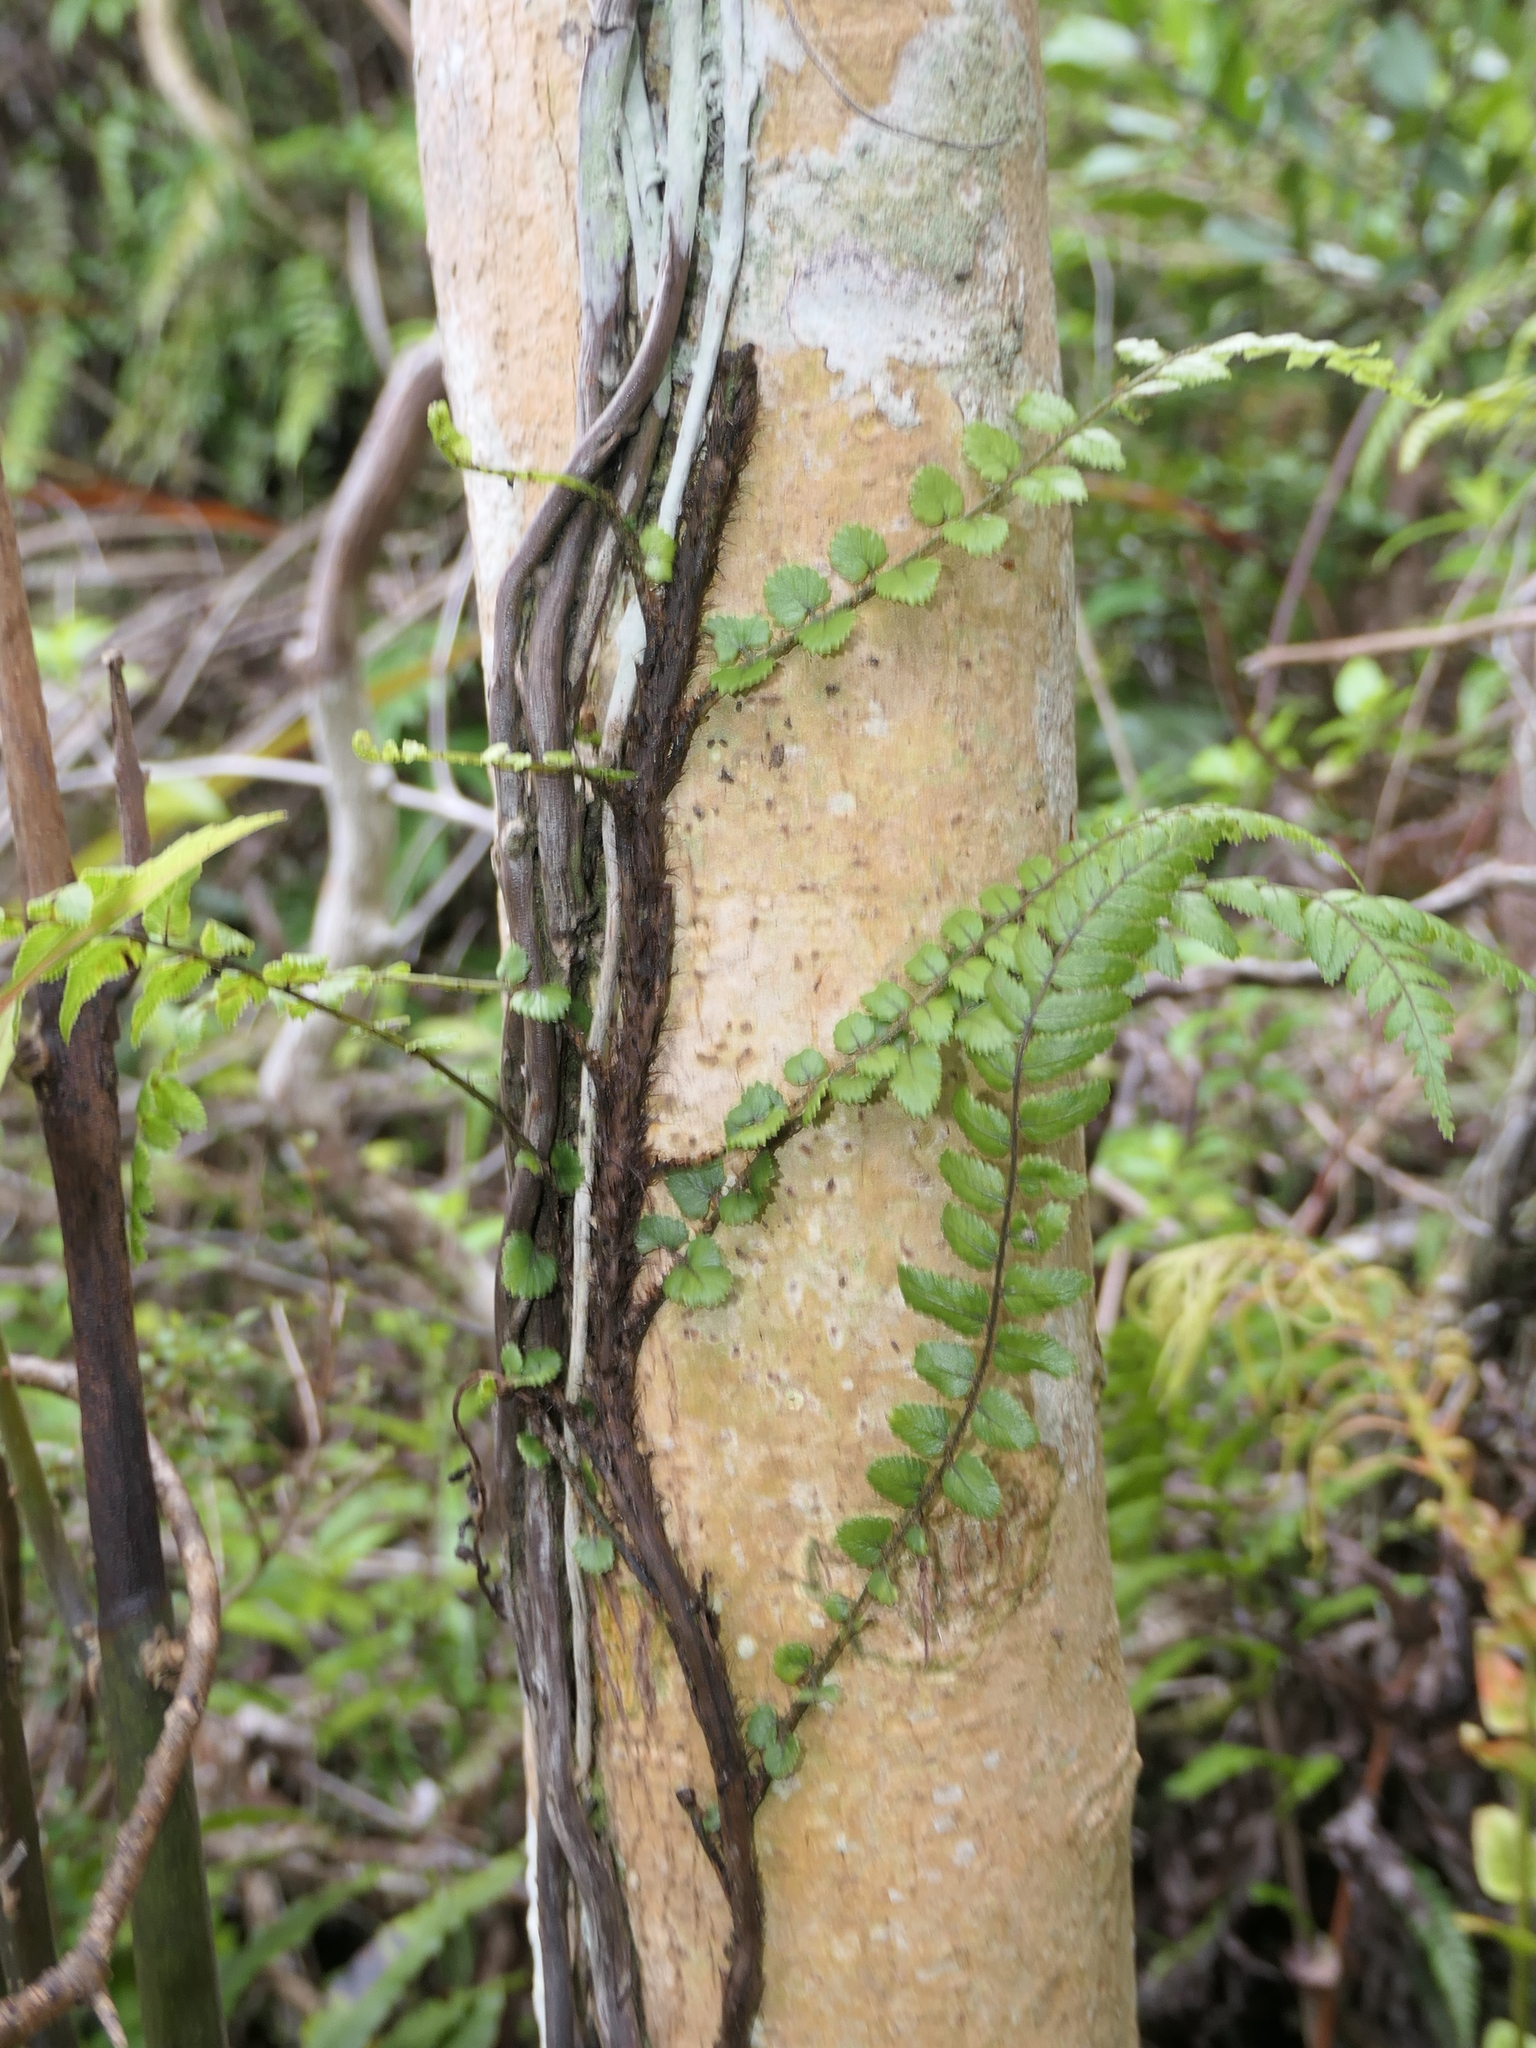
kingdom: Plantae
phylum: Tracheophyta
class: Polypodiopsida
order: Polypodiales
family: Blechnaceae
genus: Icarus
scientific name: Icarus filiformis
